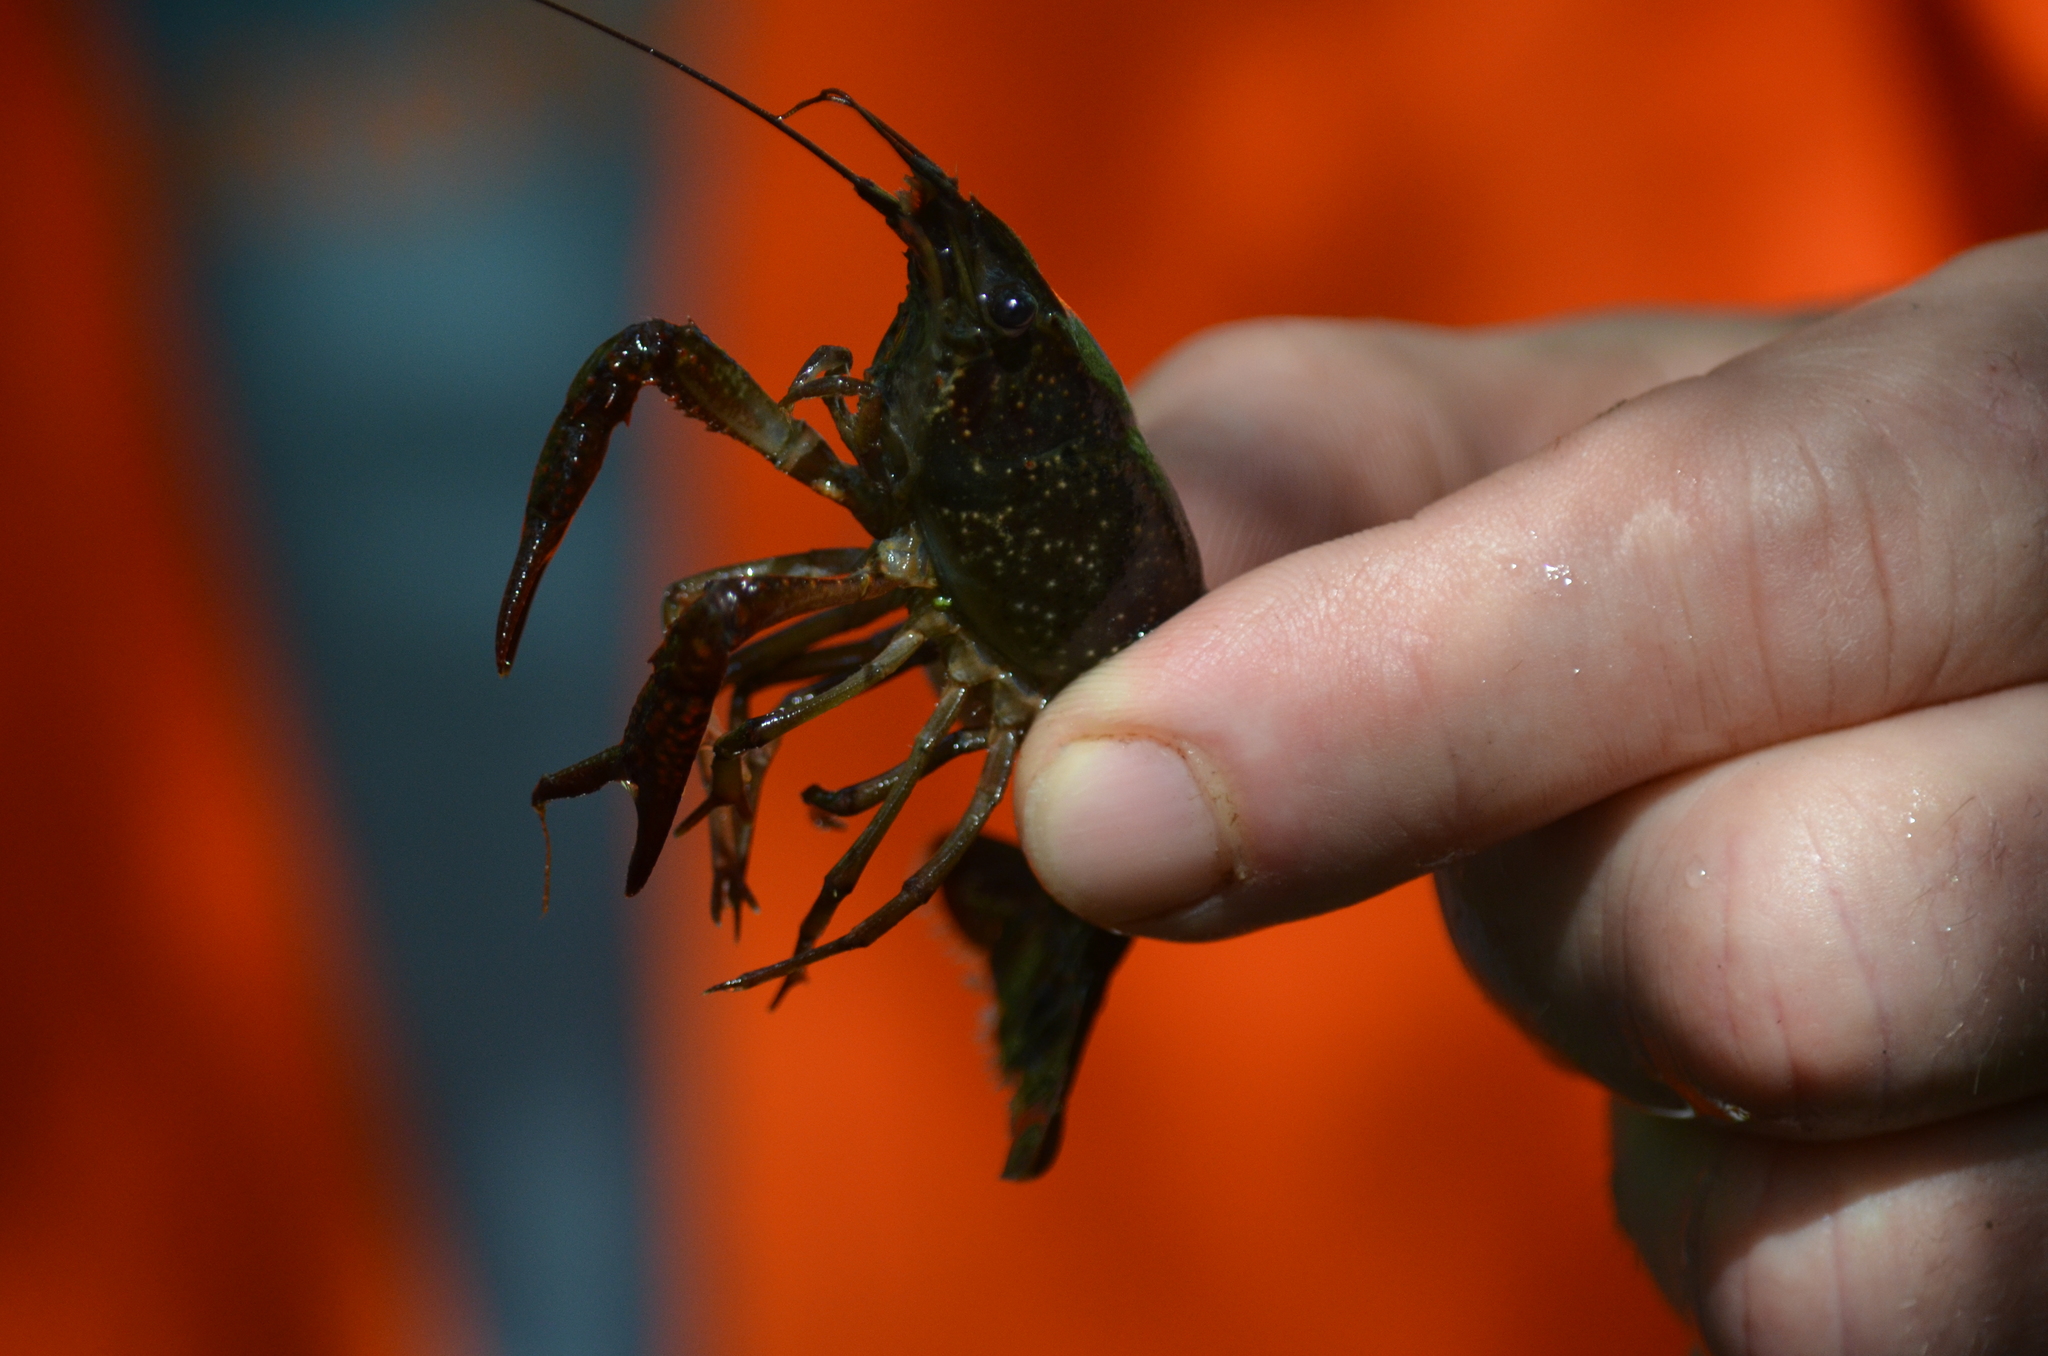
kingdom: Animalia
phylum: Arthropoda
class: Malacostraca
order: Decapoda
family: Cambaridae
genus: Procambarus
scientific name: Procambarus clarkii
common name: Red swamp crayfish
